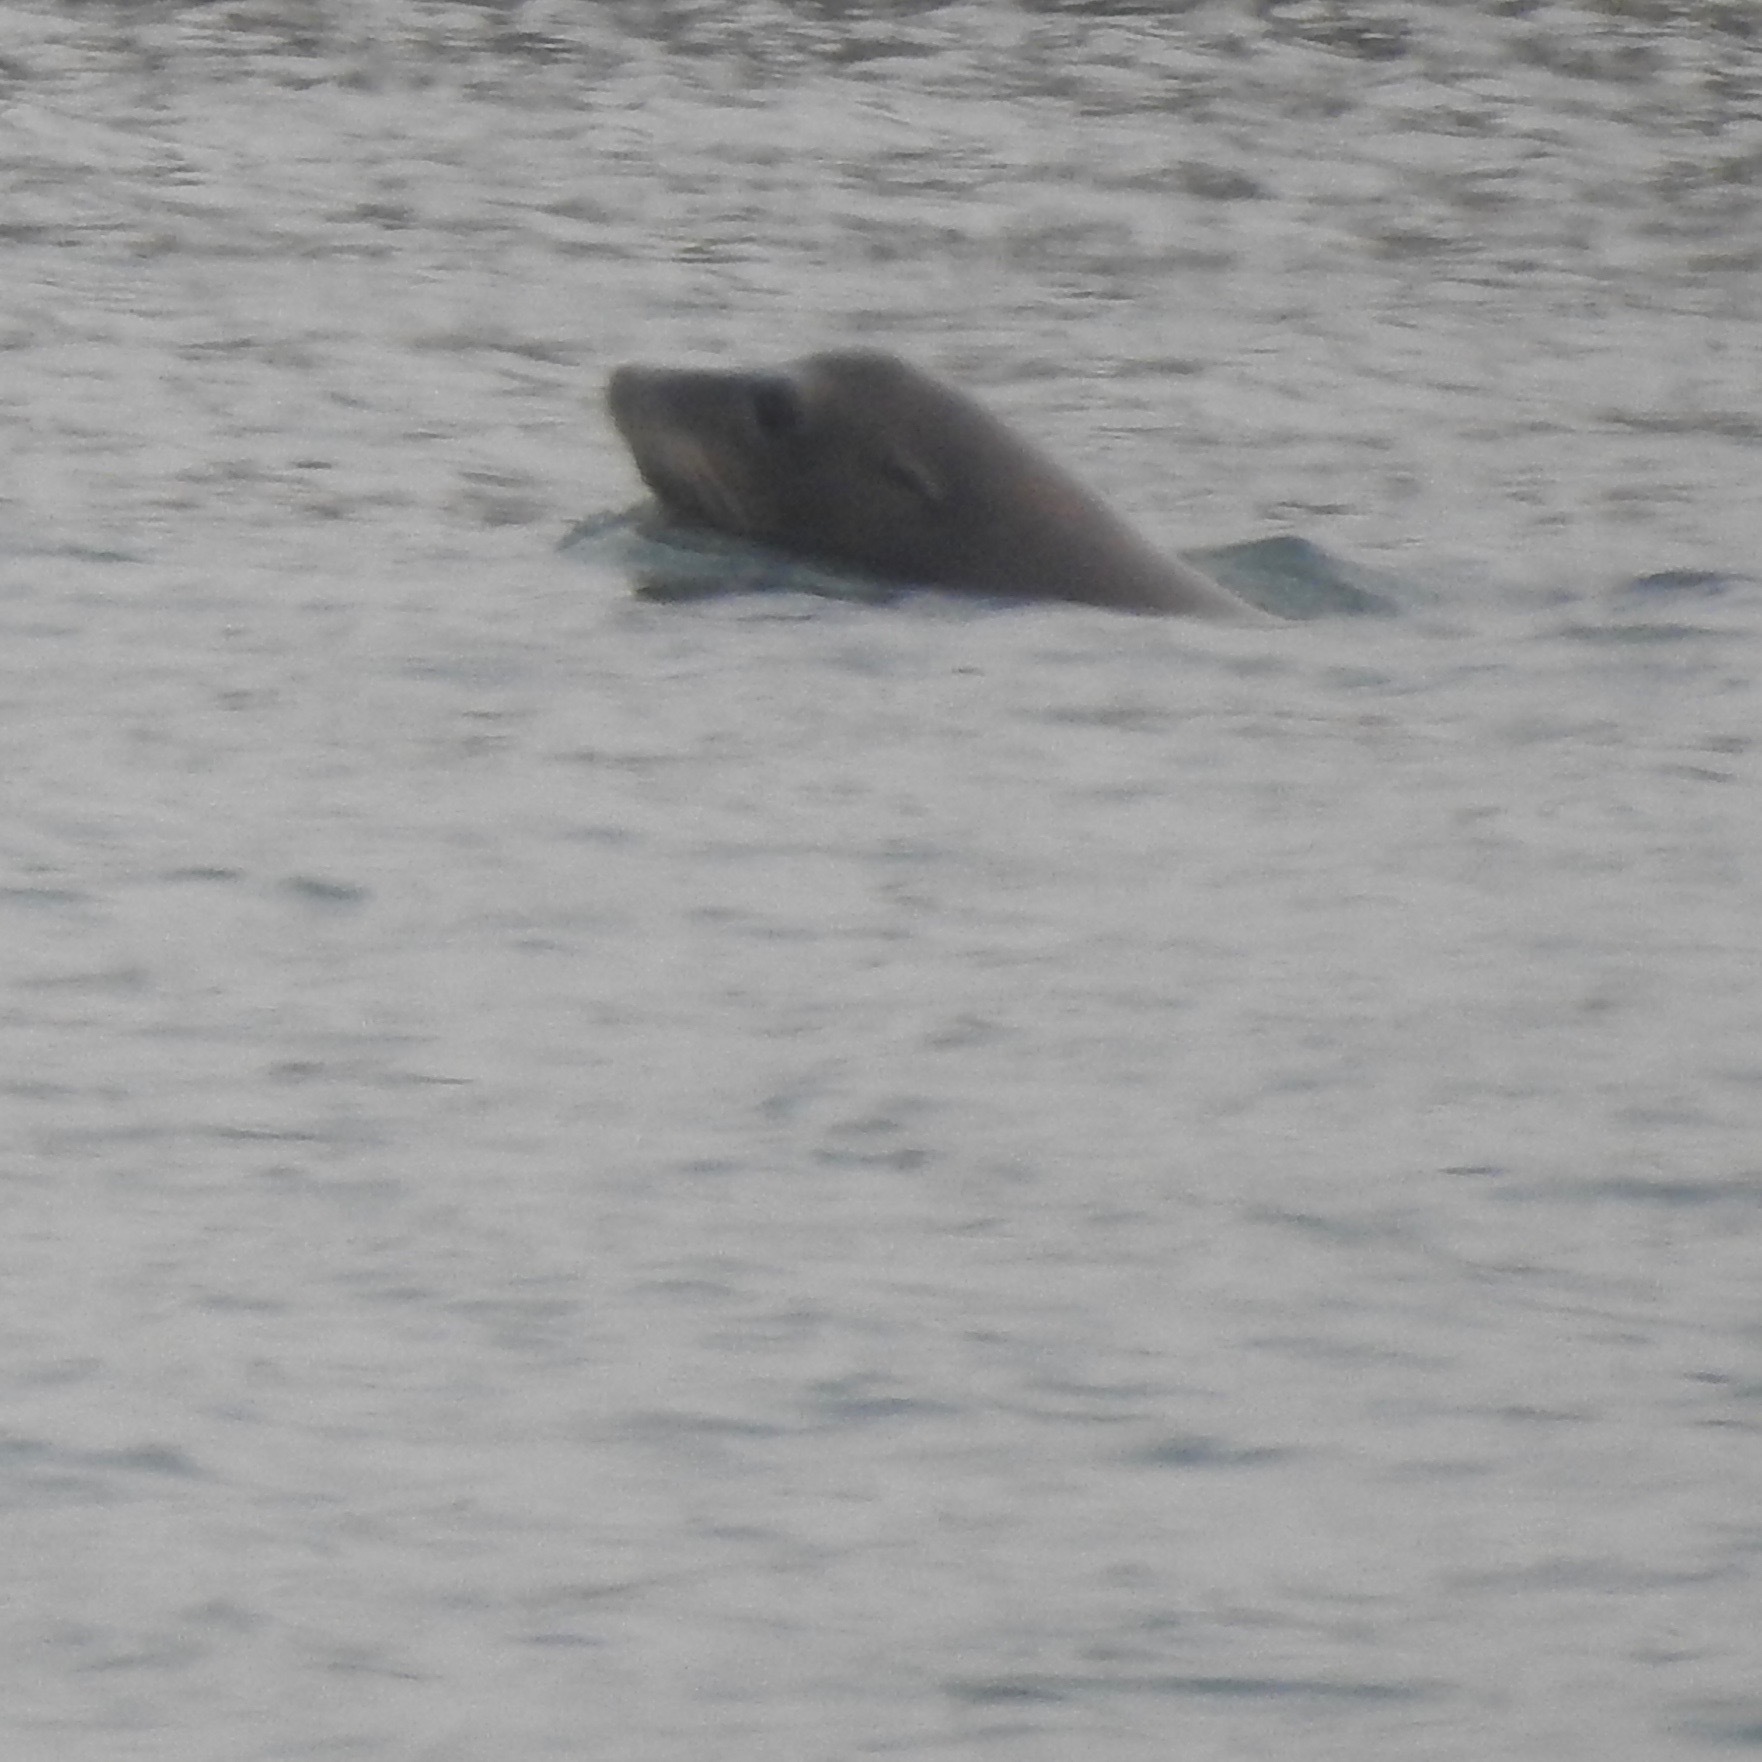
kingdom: Animalia
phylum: Chordata
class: Mammalia
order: Carnivora
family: Otariidae
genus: Zalophus
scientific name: Zalophus californianus
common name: California sea lion
